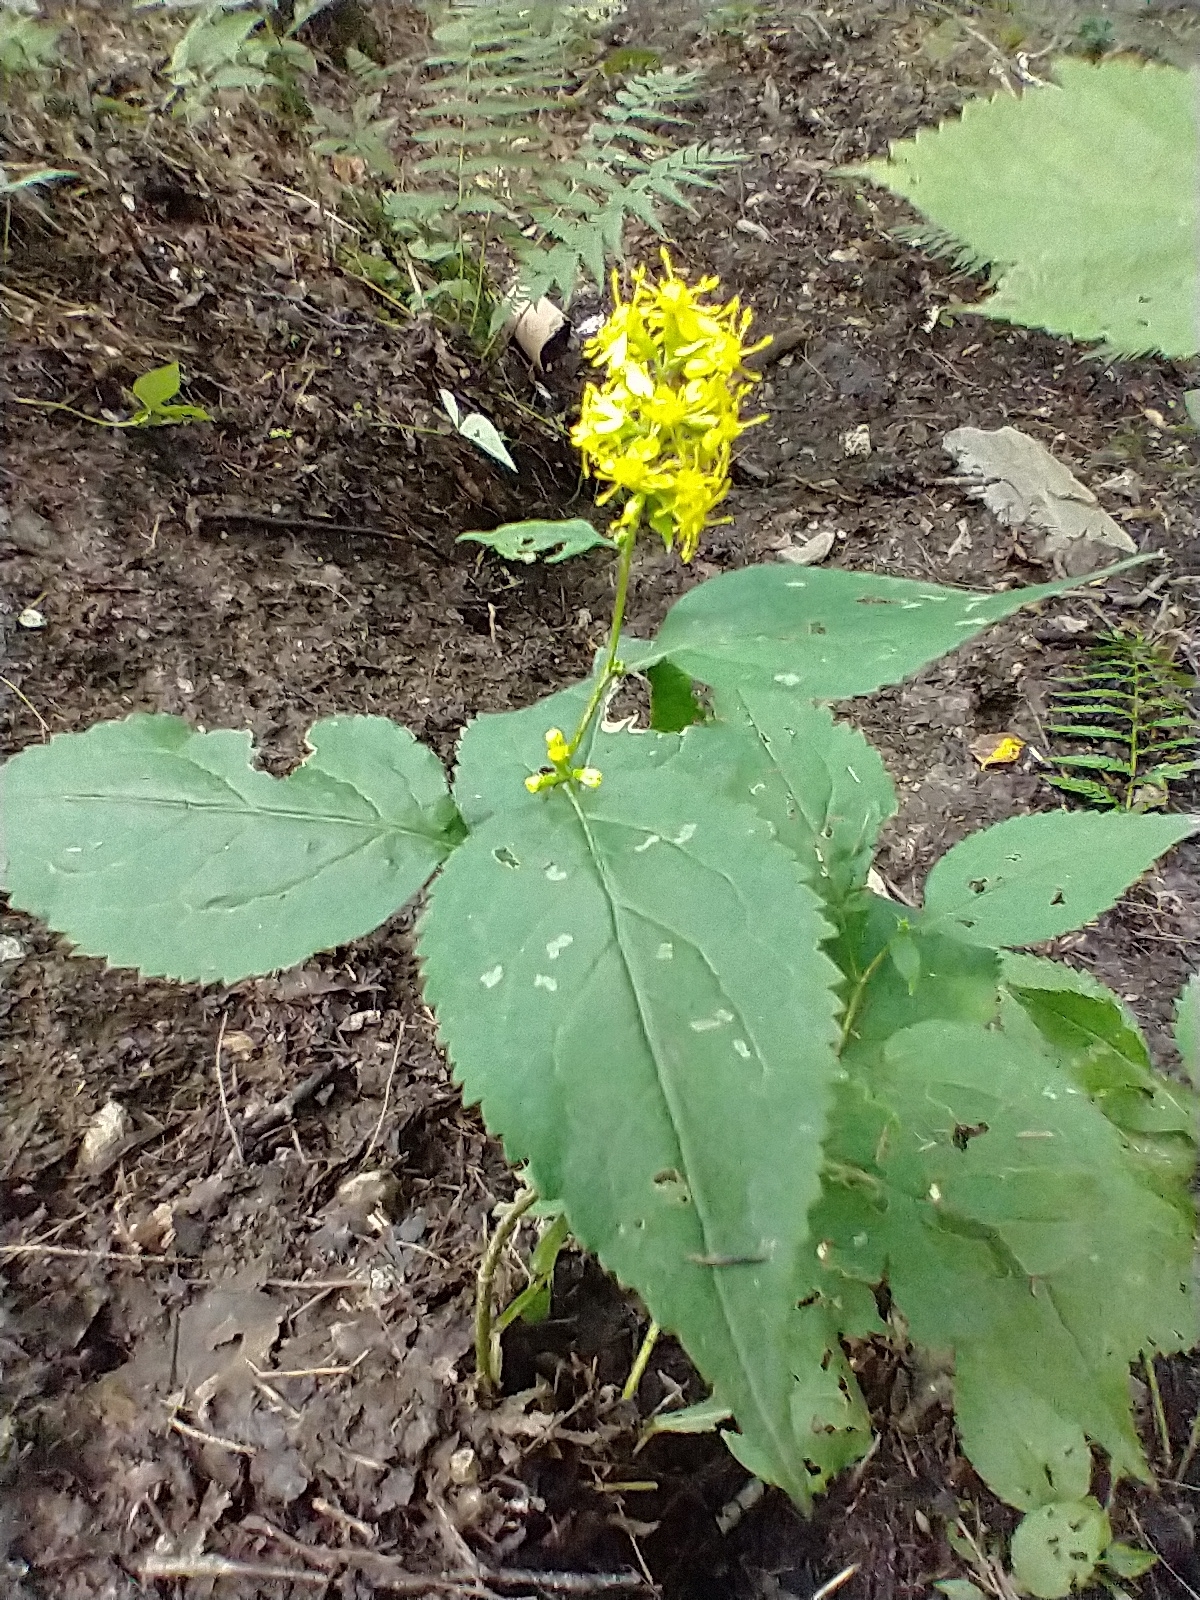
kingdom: Plantae
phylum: Tracheophyta
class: Magnoliopsida
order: Asterales
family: Asteraceae
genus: Solidago
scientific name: Solidago flexicaulis
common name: Zig-zag goldenrod
